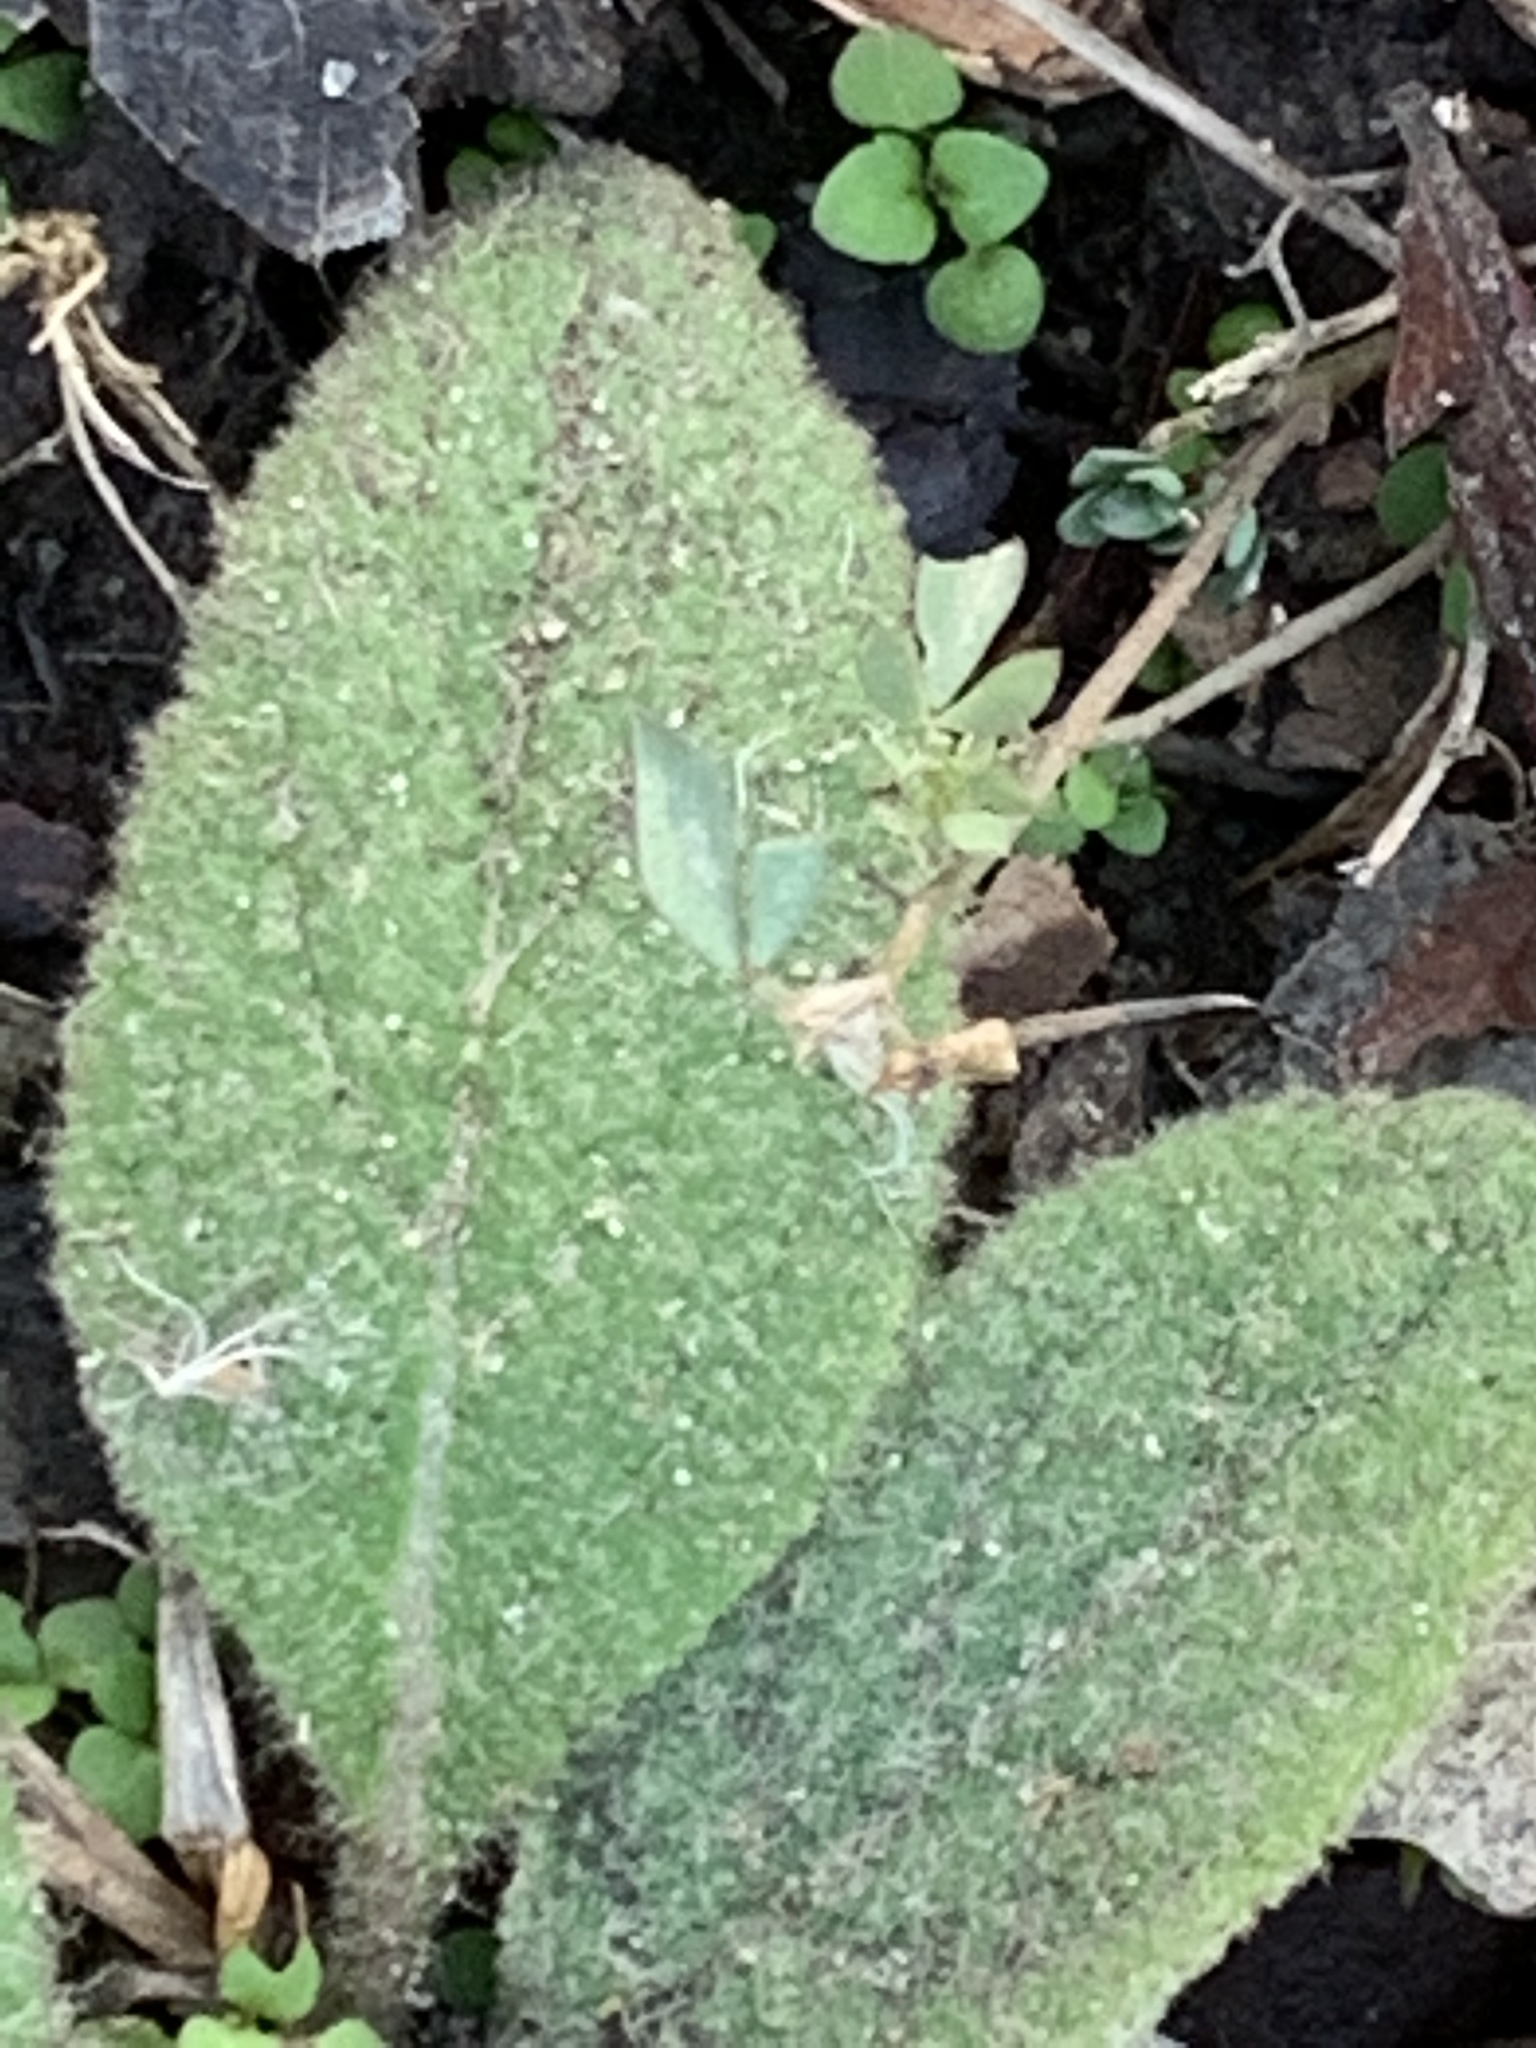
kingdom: Plantae
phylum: Tracheophyta
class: Magnoliopsida
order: Lamiales
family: Scrophulariaceae
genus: Verbascum
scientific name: Verbascum thapsus
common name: Common mullein
